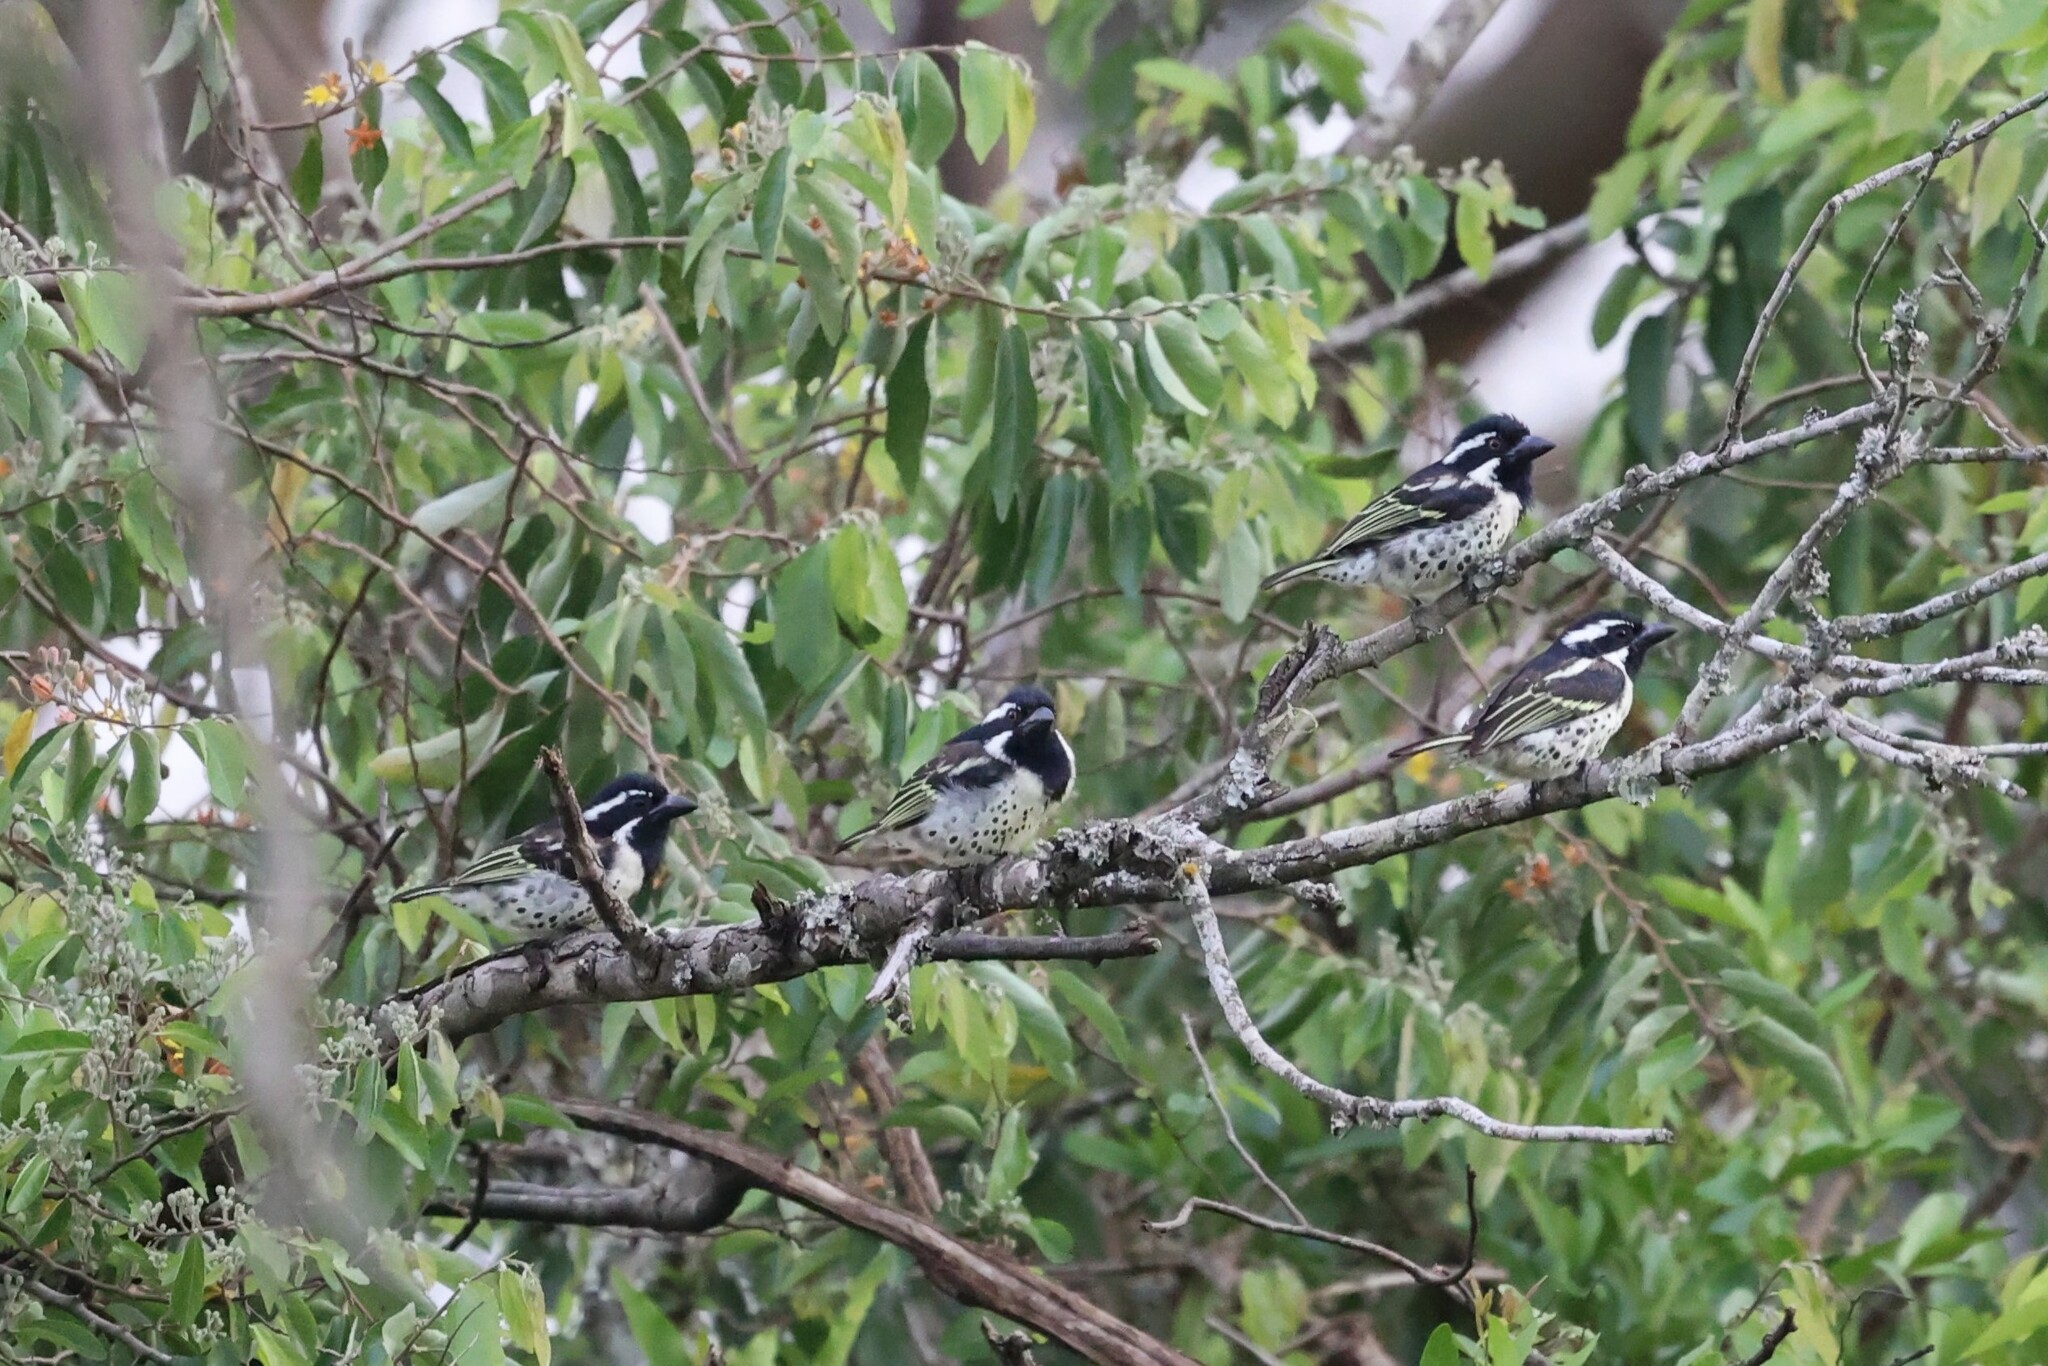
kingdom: Animalia
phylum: Chordata
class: Aves
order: Piciformes
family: Lybiidae
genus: Tricholaema
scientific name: Tricholaema lacrymosa
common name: Spot-flanked barbet
